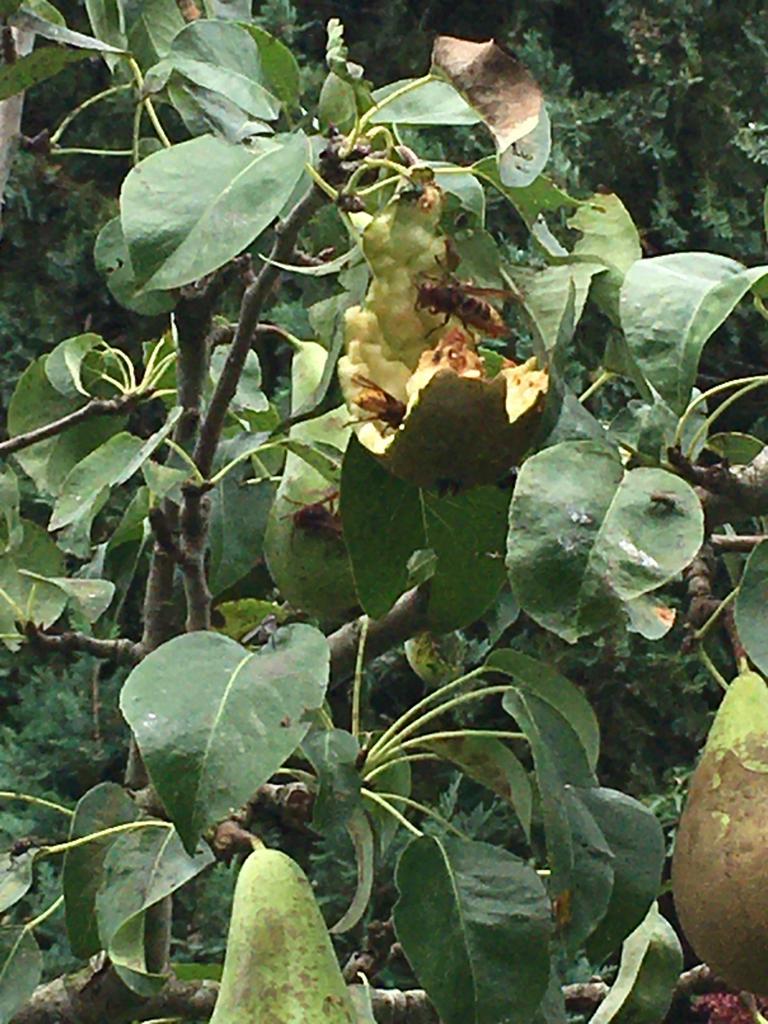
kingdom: Animalia
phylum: Arthropoda
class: Insecta
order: Hymenoptera
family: Vespidae
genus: Vespa
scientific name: Vespa crabro
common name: Hornet
